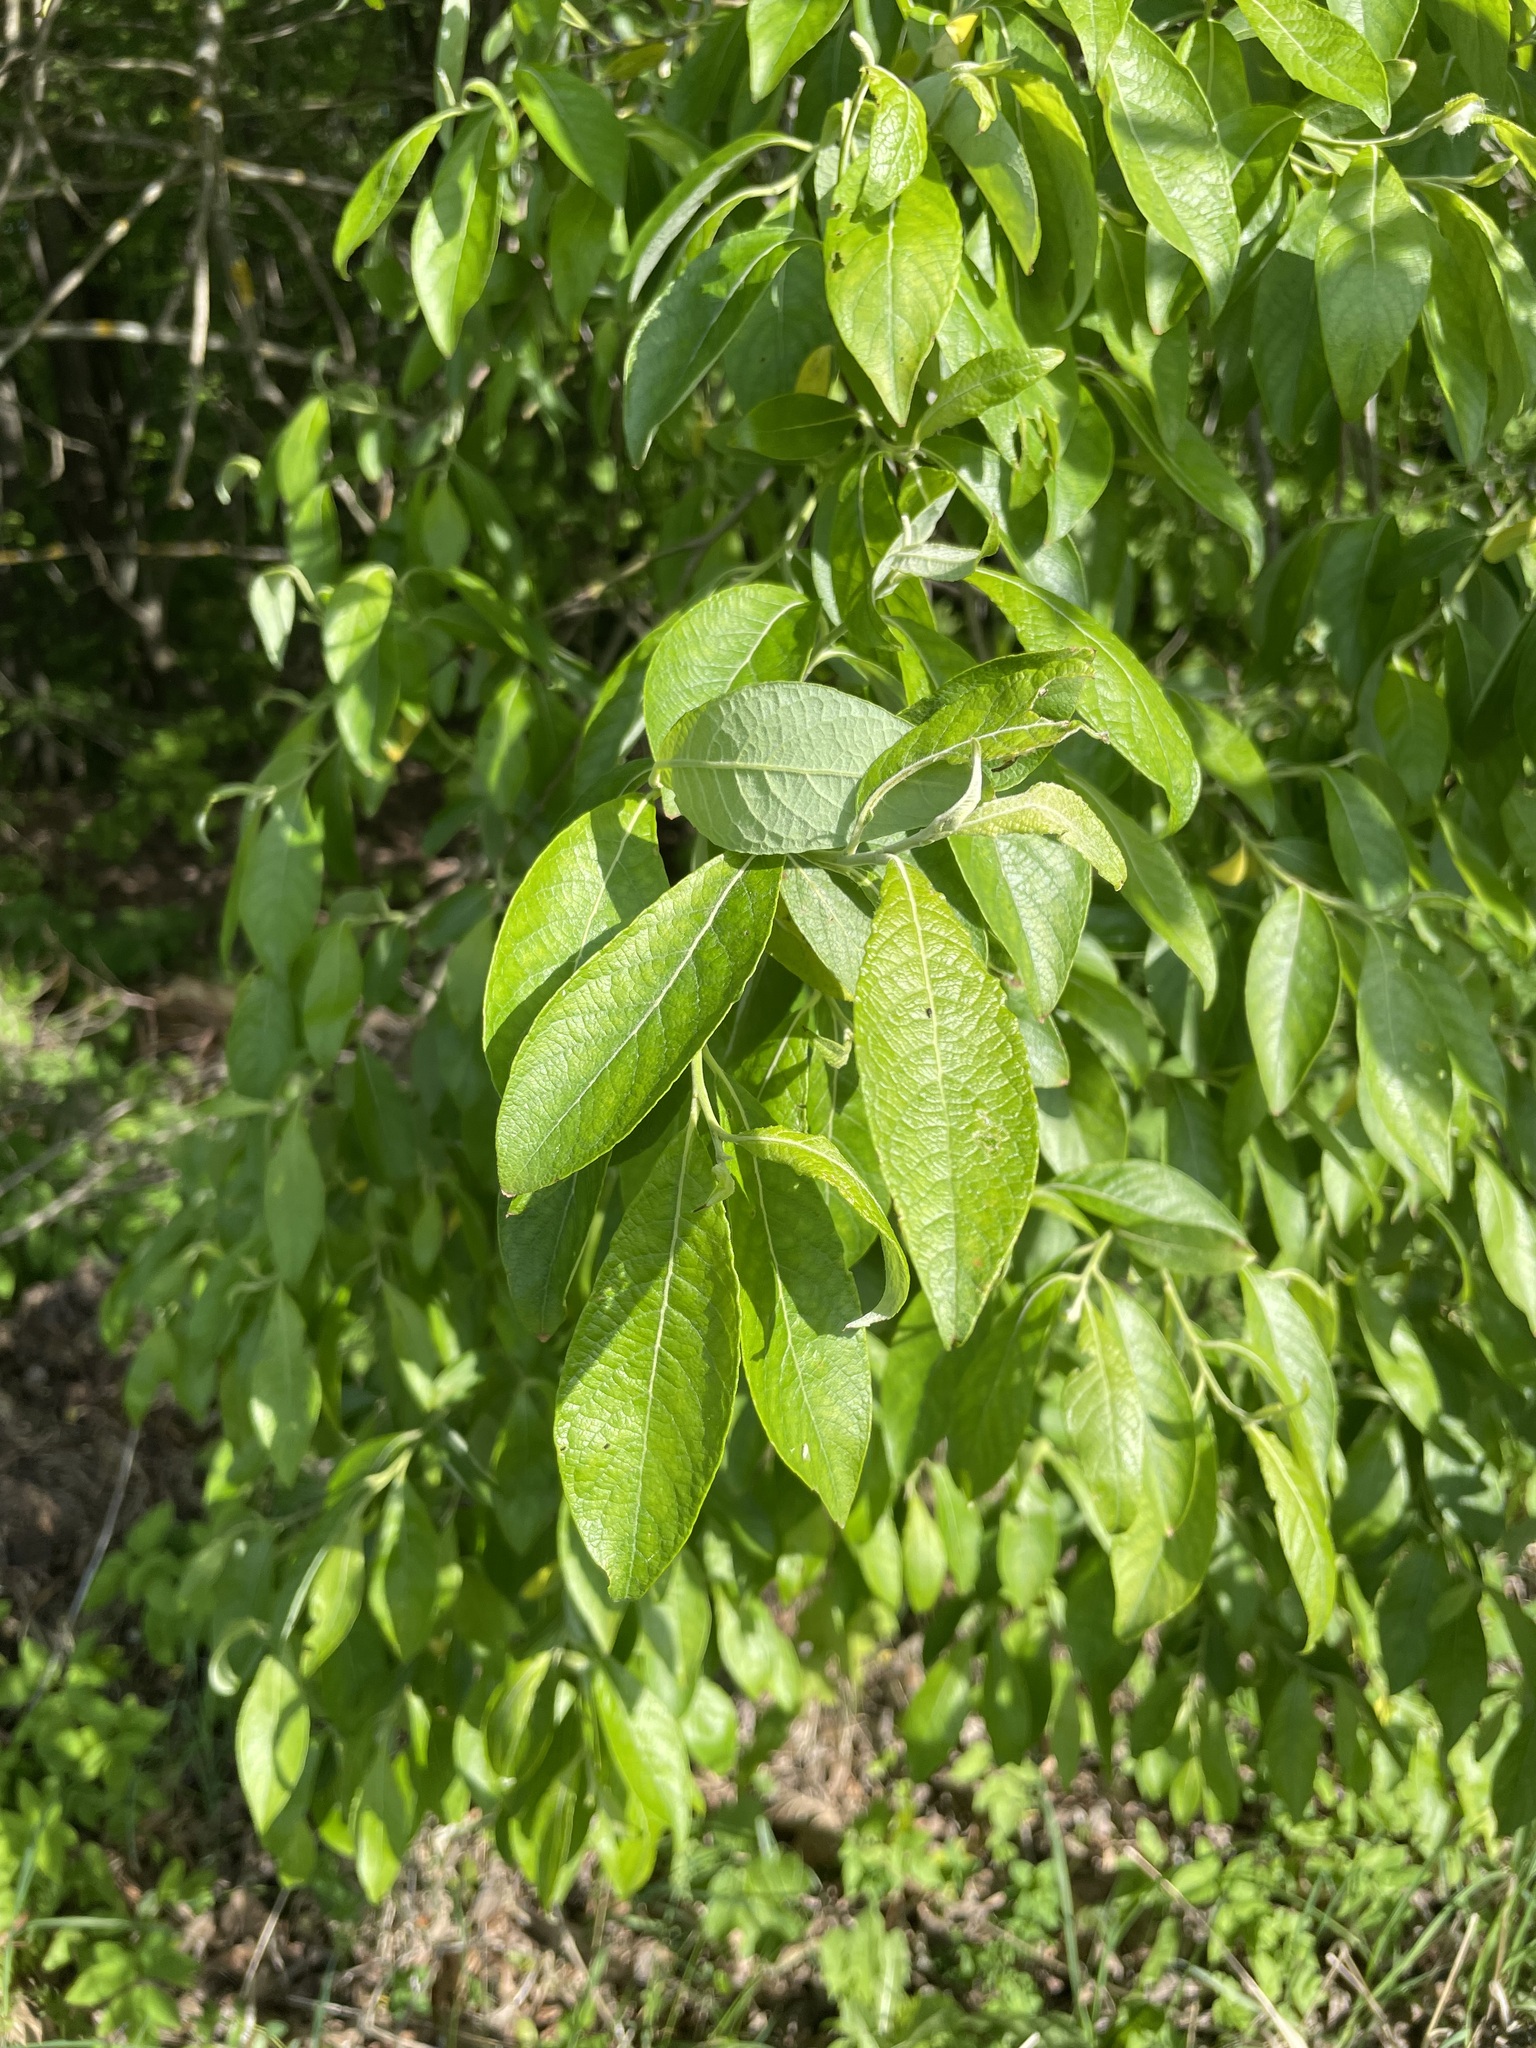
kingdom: Plantae
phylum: Tracheophyta
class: Magnoliopsida
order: Malpighiales
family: Salicaceae
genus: Salix
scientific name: Salix caprea
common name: Goat willow
